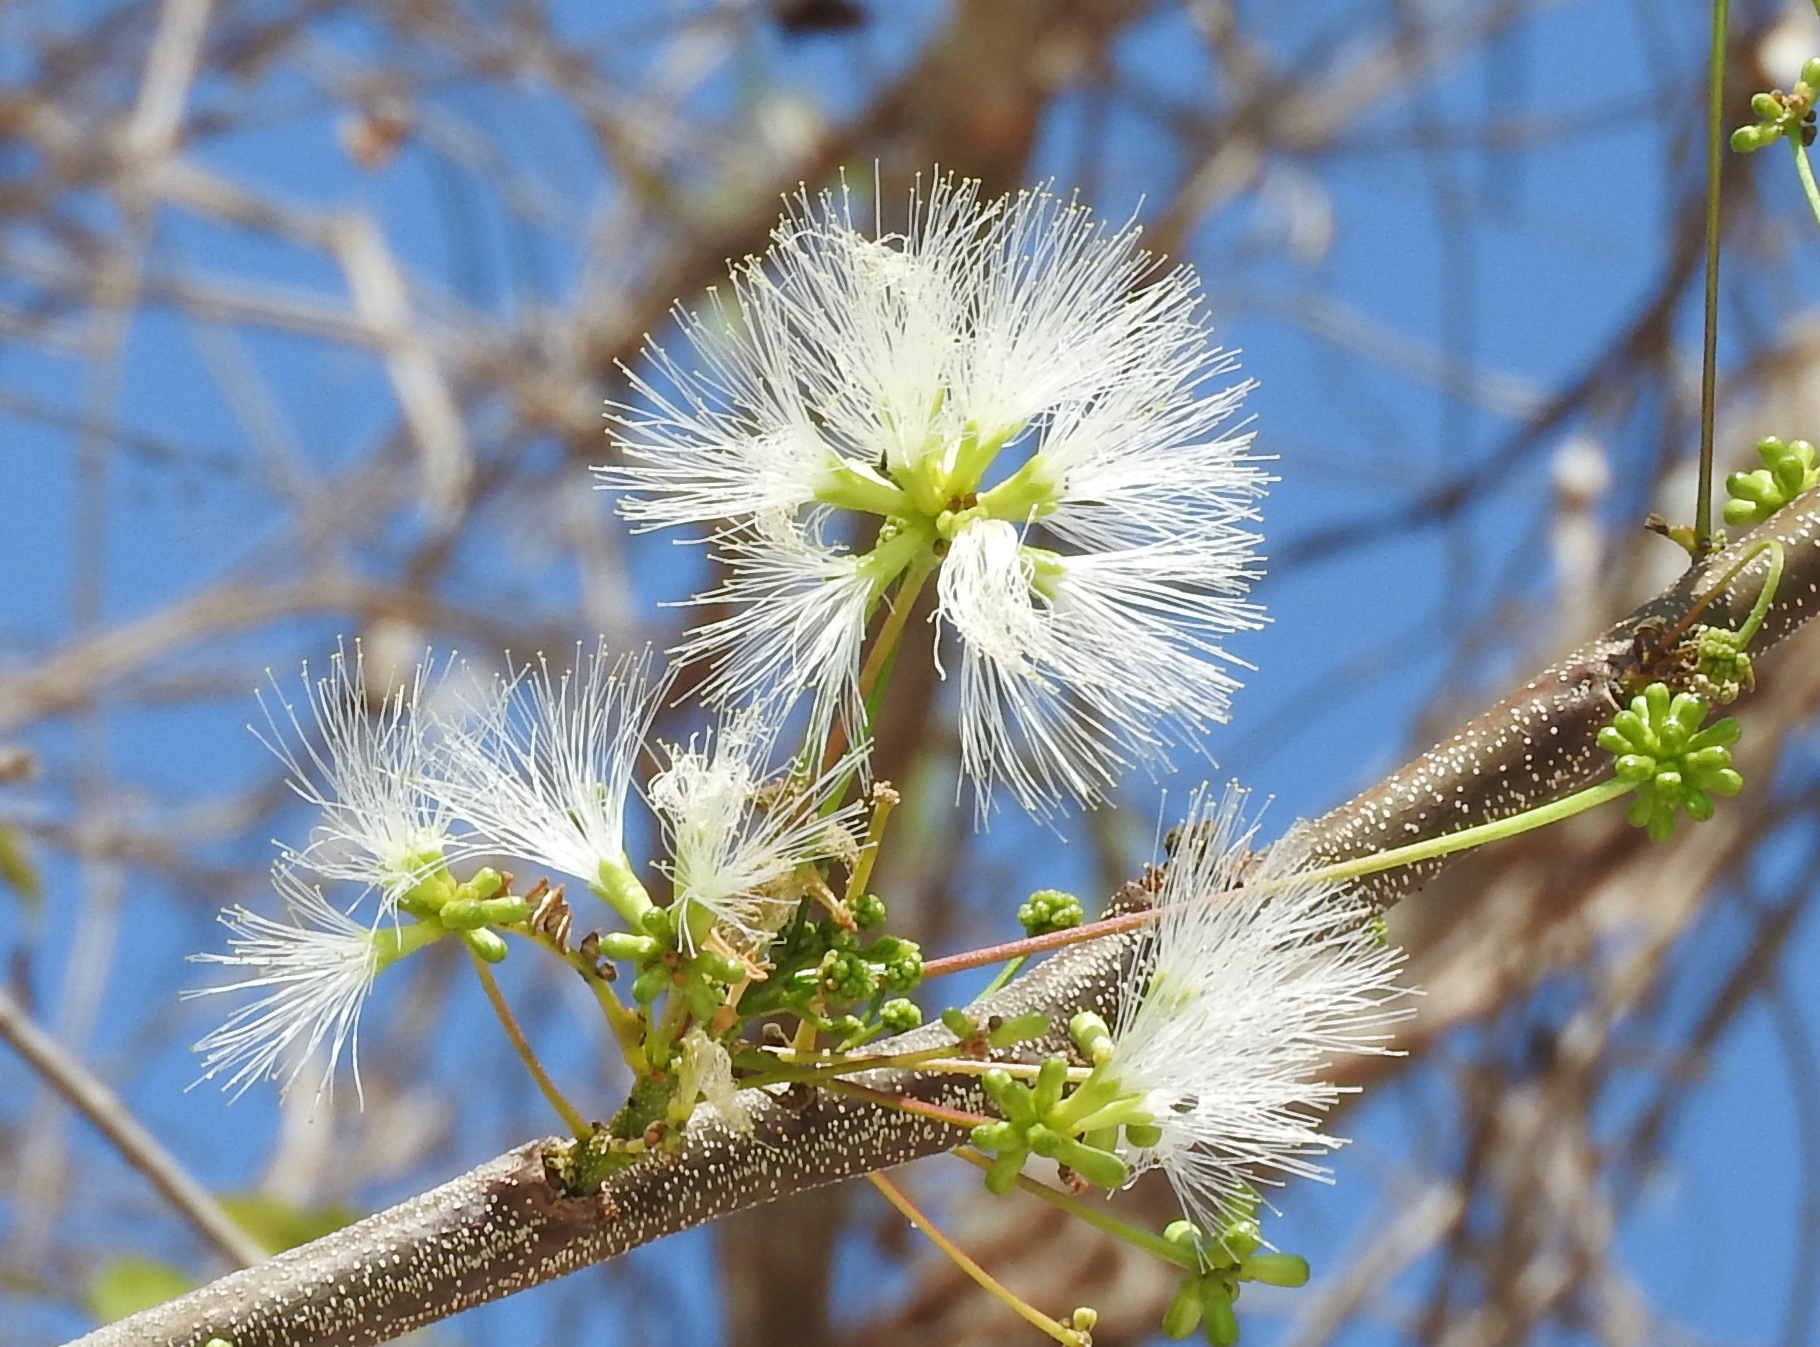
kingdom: Plantae
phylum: Tracheophyta
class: Magnoliopsida
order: Fabales
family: Fabaceae
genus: Albizia
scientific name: Albizia occidentalis
